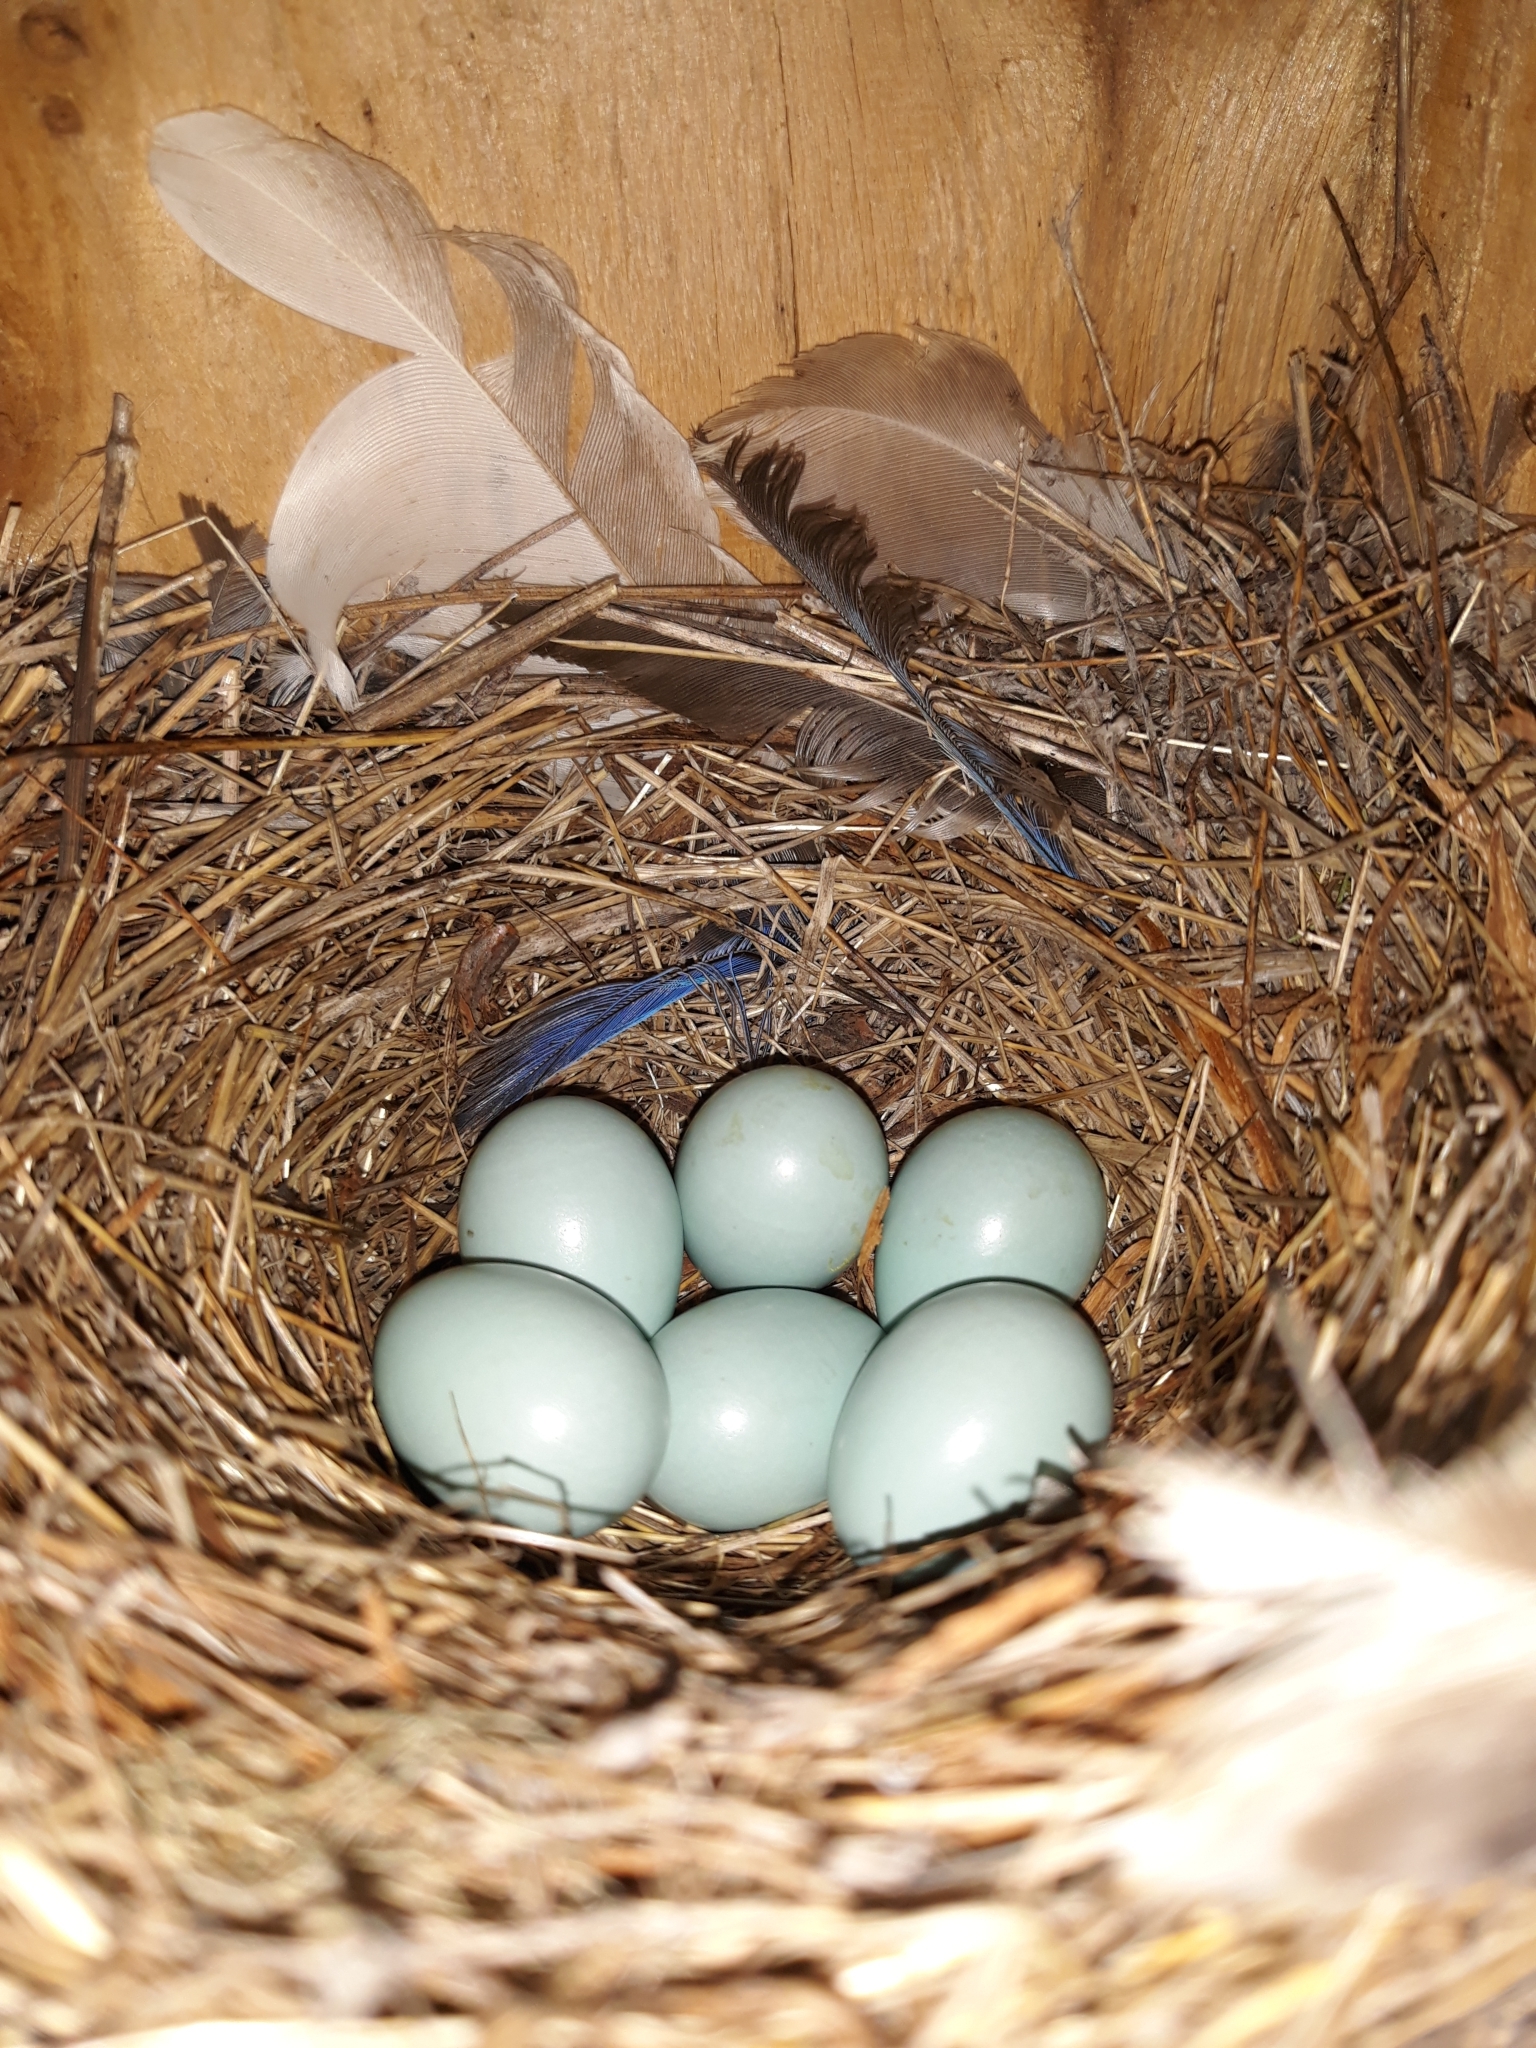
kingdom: Animalia
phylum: Chordata
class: Aves
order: Passeriformes
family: Turdidae
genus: Sialia
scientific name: Sialia mexicana
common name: Western bluebird
